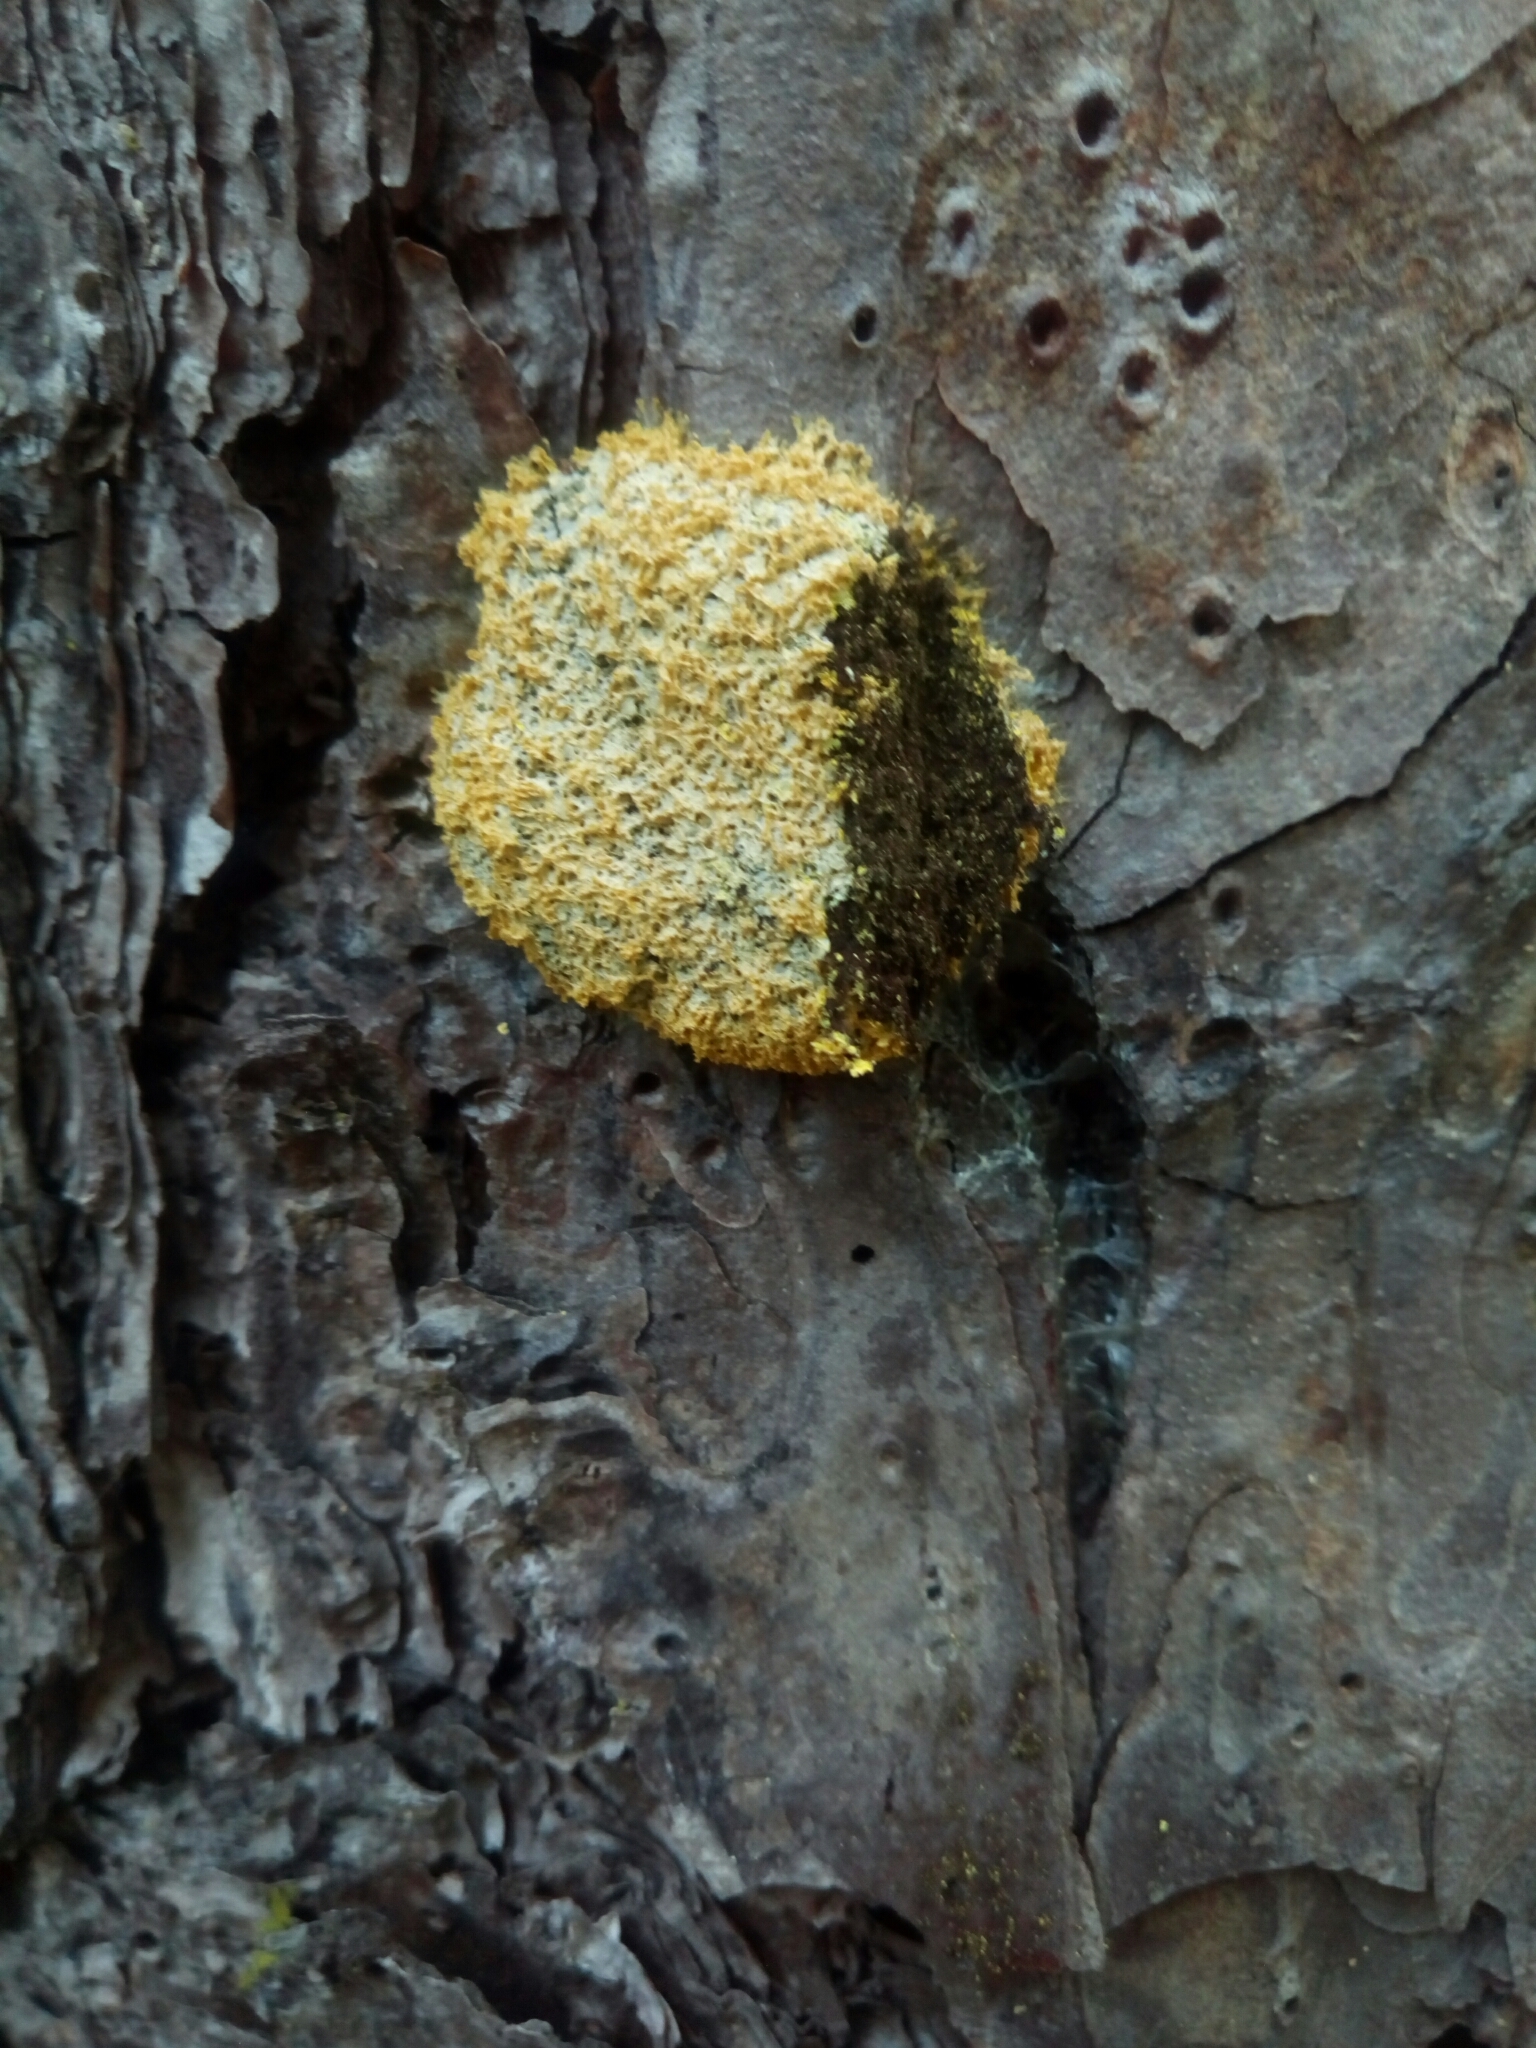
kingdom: Protozoa
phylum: Mycetozoa
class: Myxomycetes
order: Physarales
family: Physaraceae
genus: Fuligo
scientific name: Fuligo septica
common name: Dog vomit slime mold
